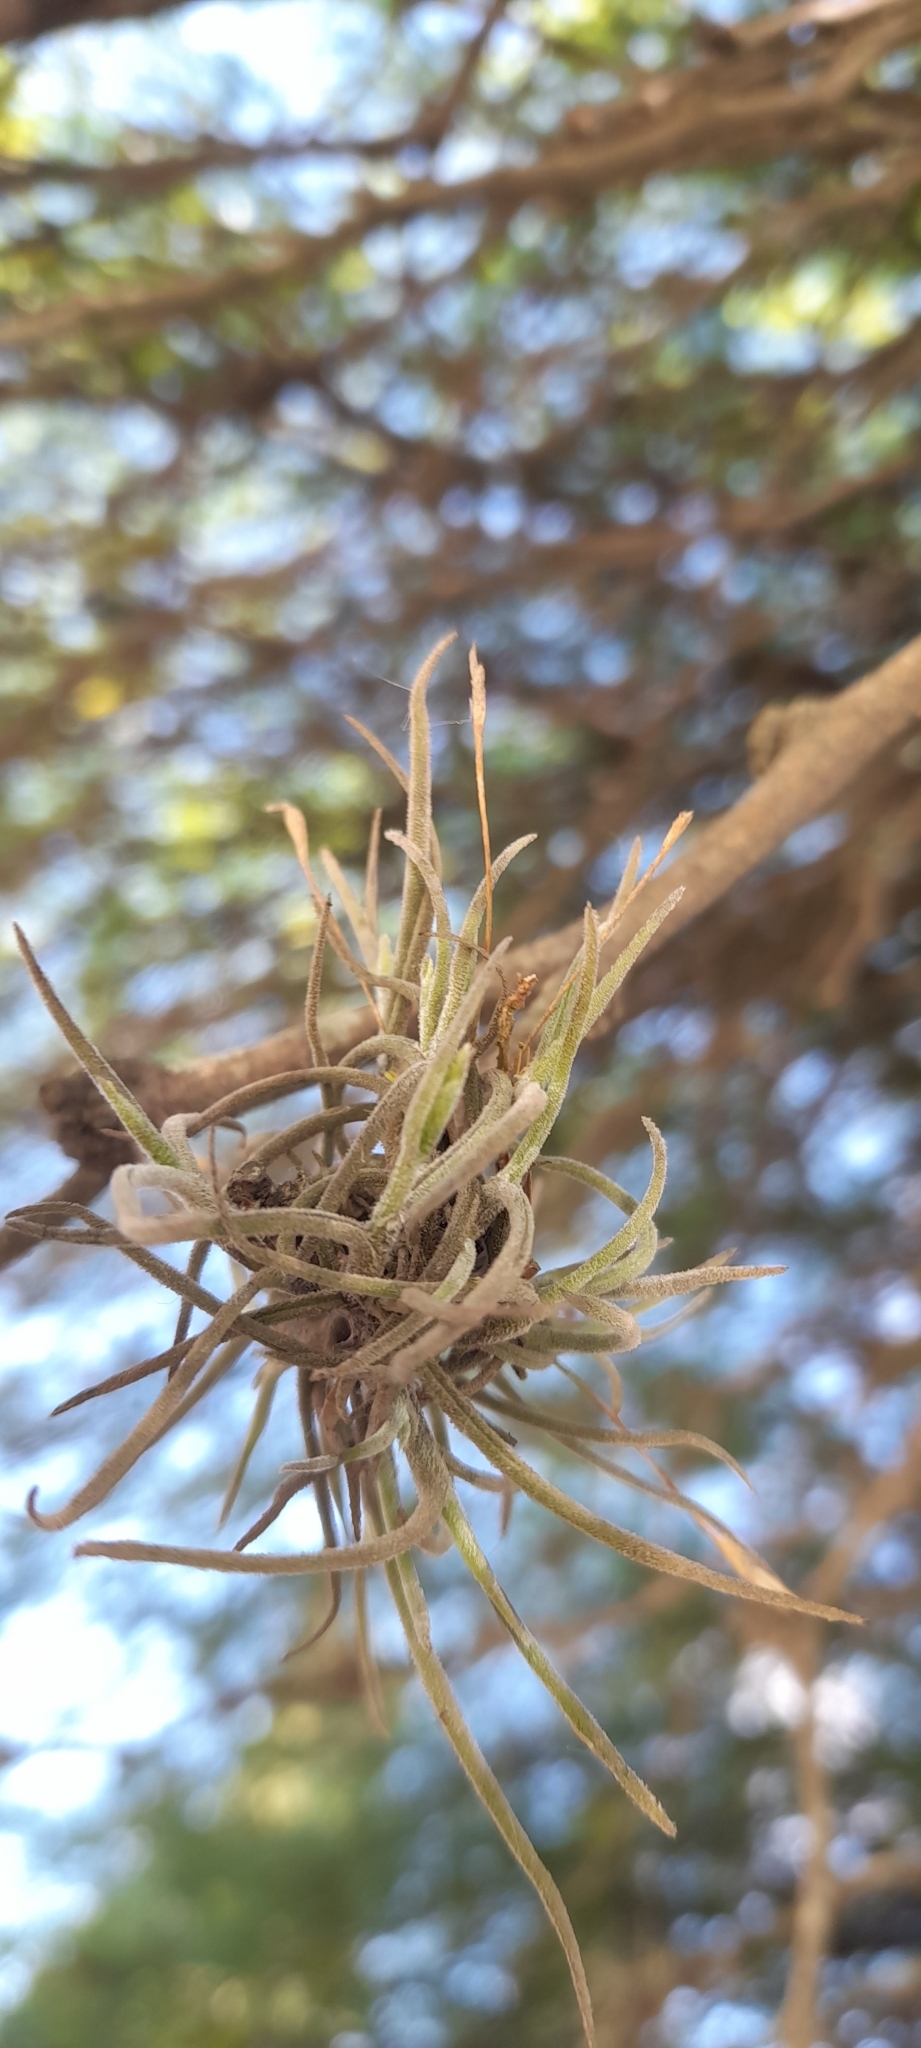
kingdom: Plantae
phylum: Tracheophyta
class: Liliopsida
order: Poales
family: Bromeliaceae
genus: Tillandsia
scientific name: Tillandsia recurvata
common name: Small ballmoss
